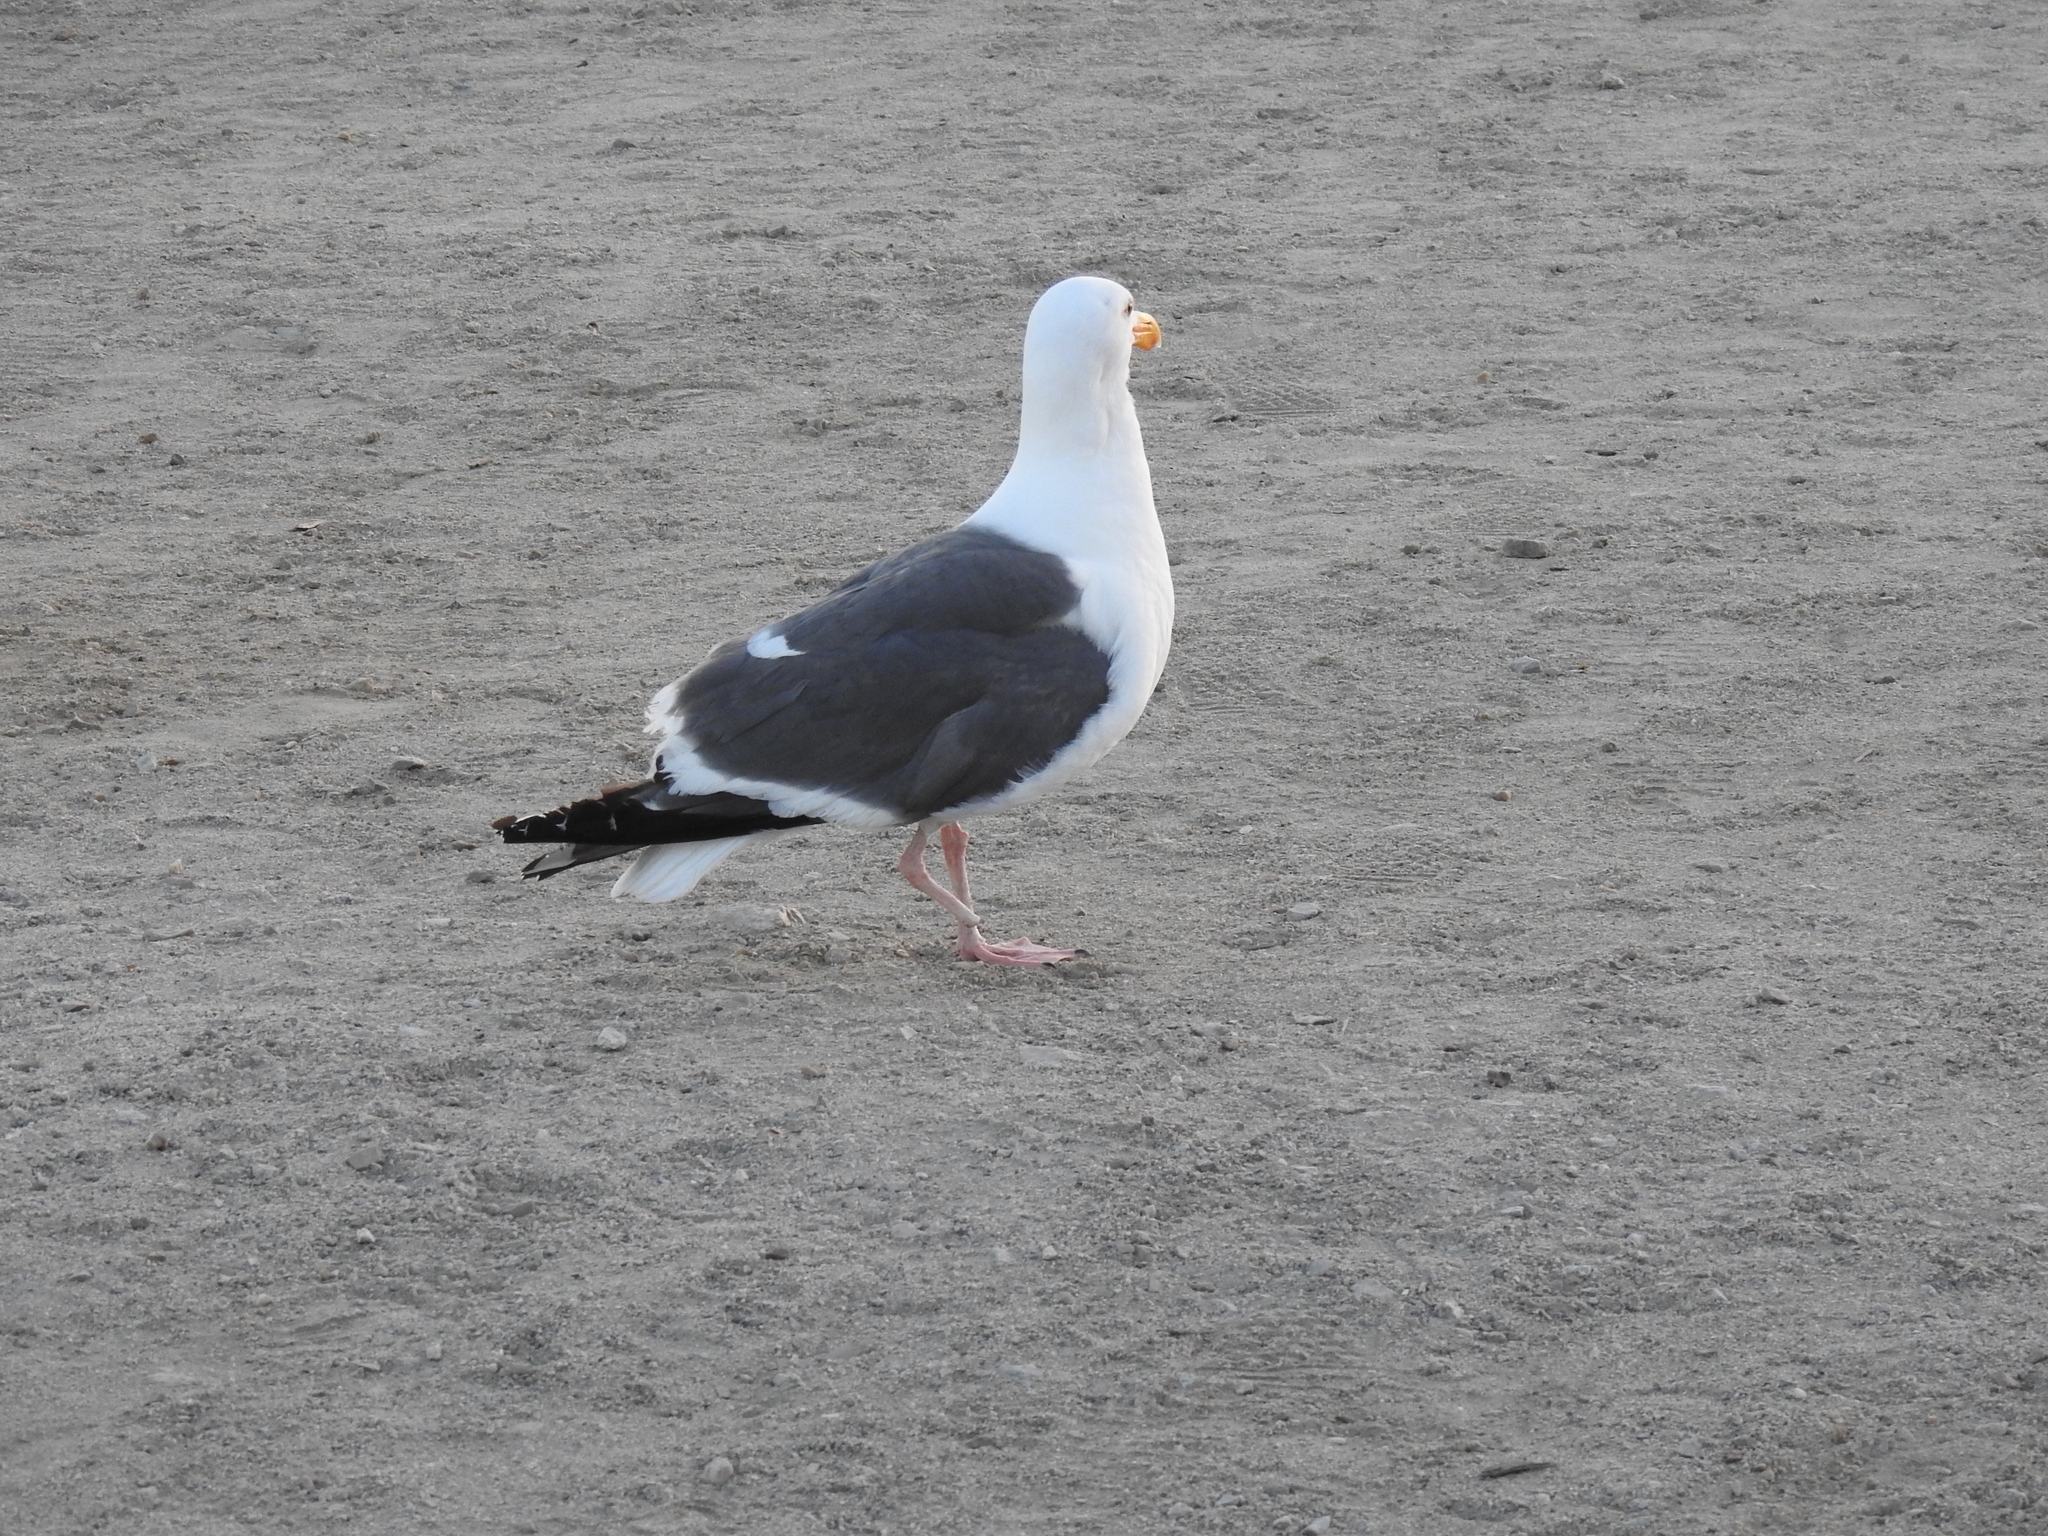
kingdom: Animalia
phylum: Chordata
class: Aves
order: Charadriiformes
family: Laridae
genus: Larus
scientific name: Larus occidentalis
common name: Western gull
